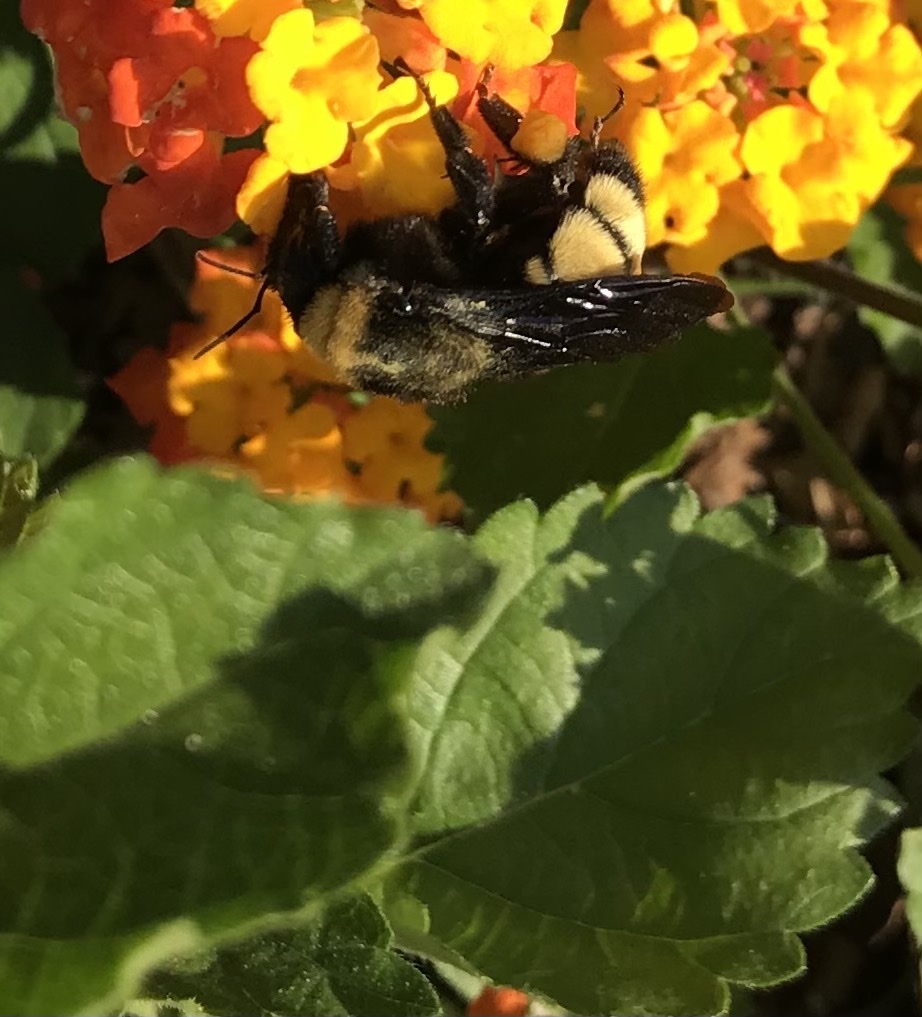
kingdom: Animalia
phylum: Arthropoda
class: Insecta
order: Hymenoptera
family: Apidae
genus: Bombus
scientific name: Bombus pensylvanicus
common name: Bumble bee
